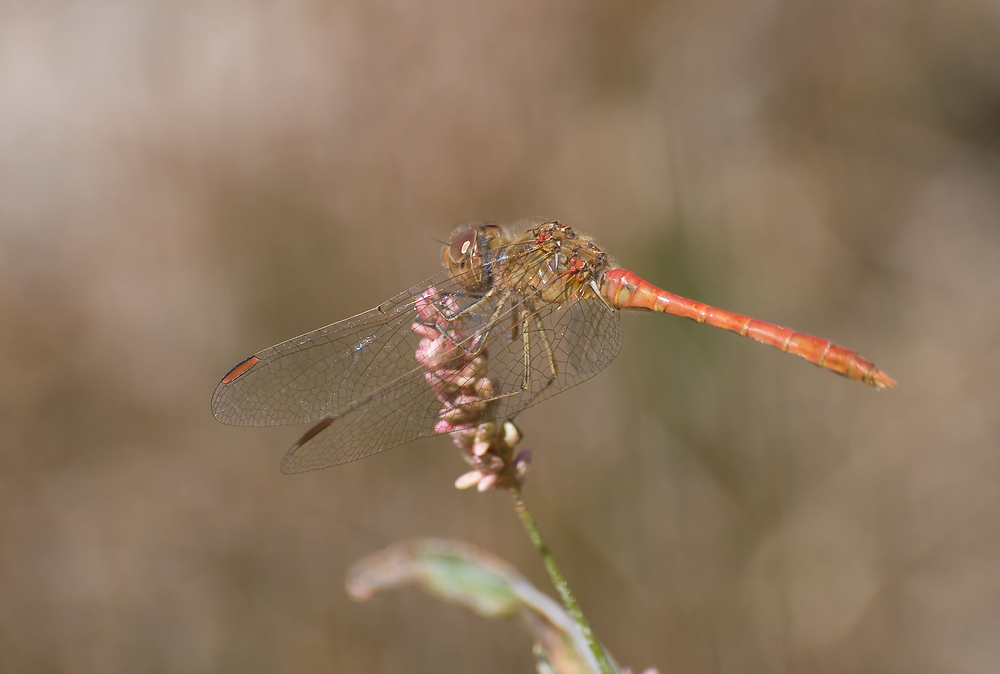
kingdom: Animalia
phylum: Arthropoda
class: Insecta
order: Odonata
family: Libellulidae
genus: Sympetrum
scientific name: Sympetrum meridionale
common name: Southern darter
